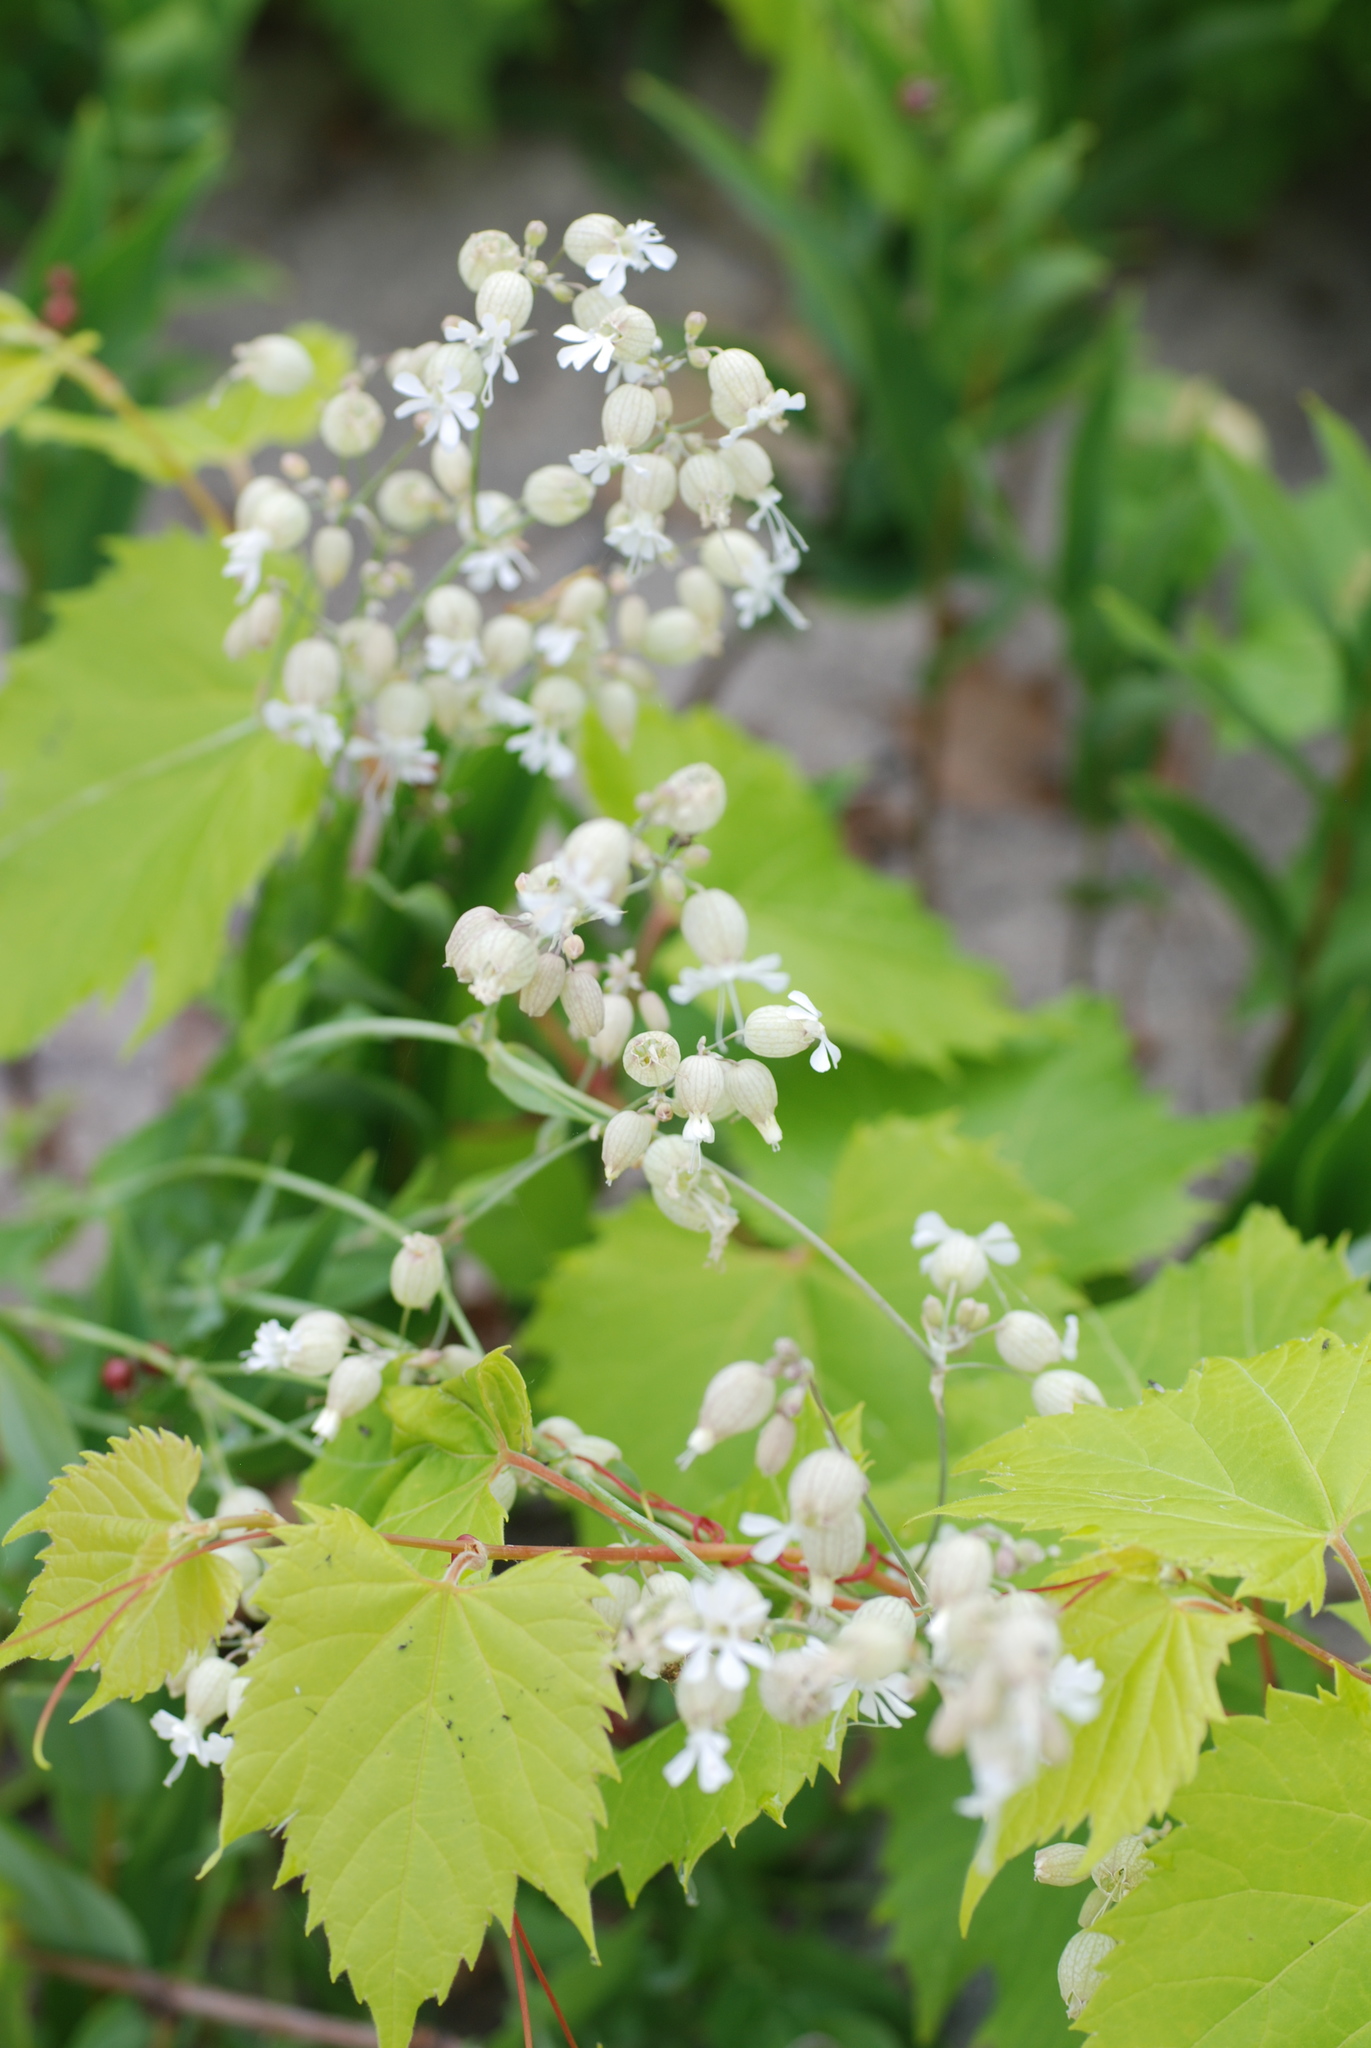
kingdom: Plantae
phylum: Tracheophyta
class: Magnoliopsida
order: Vitales
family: Vitaceae
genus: Vitis
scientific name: Vitis riparia
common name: Frost grape
